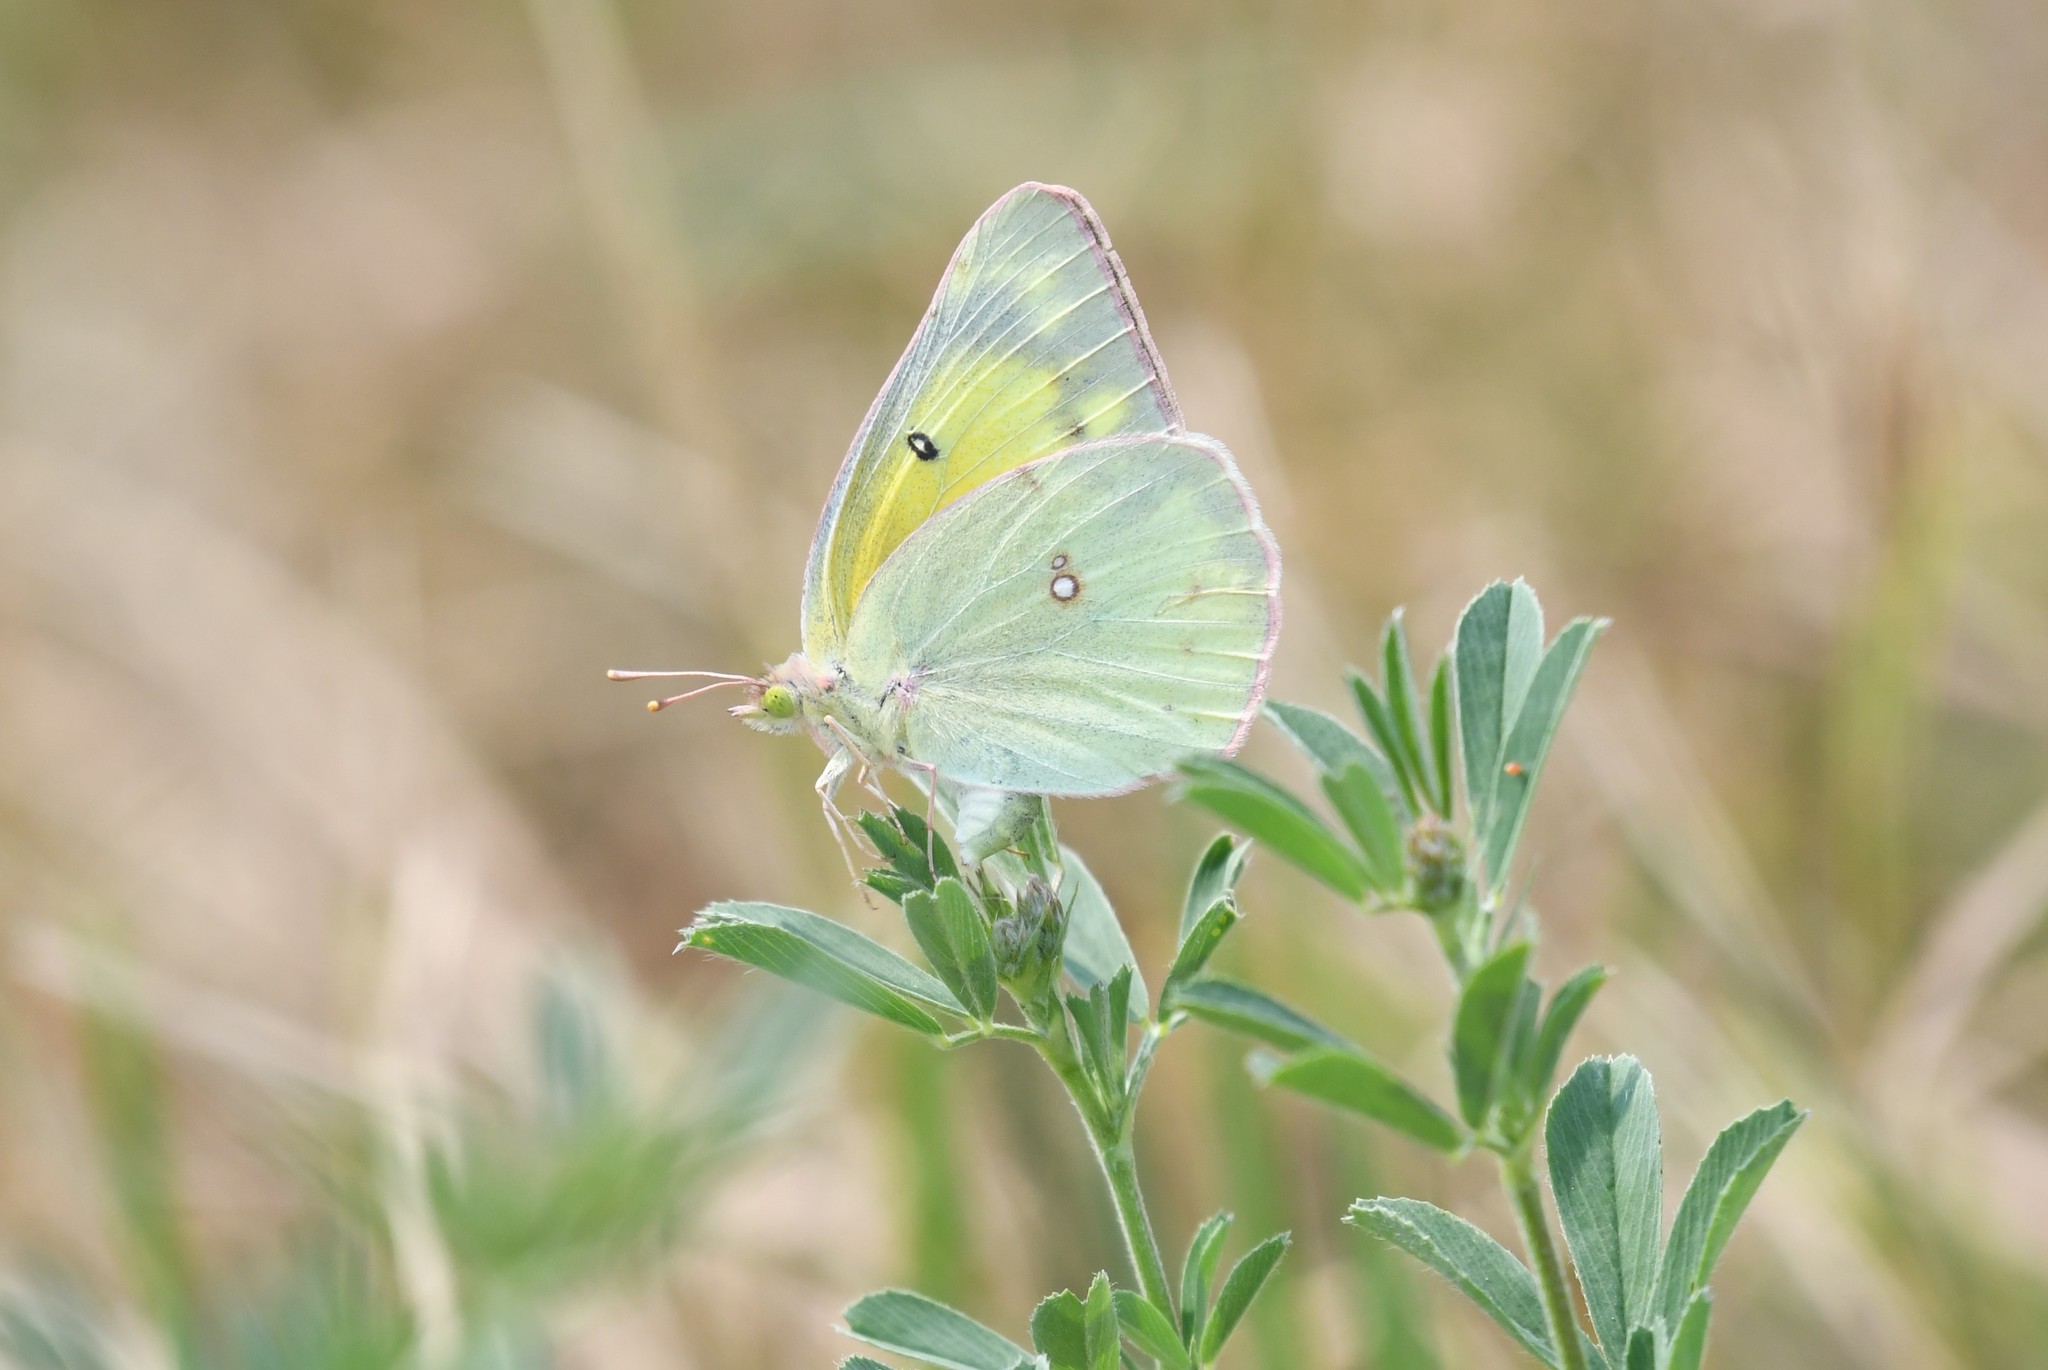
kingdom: Animalia
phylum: Arthropoda
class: Insecta
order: Lepidoptera
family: Pieridae
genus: Colias
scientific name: Colias eurytheme
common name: Alfalfa butterfly
